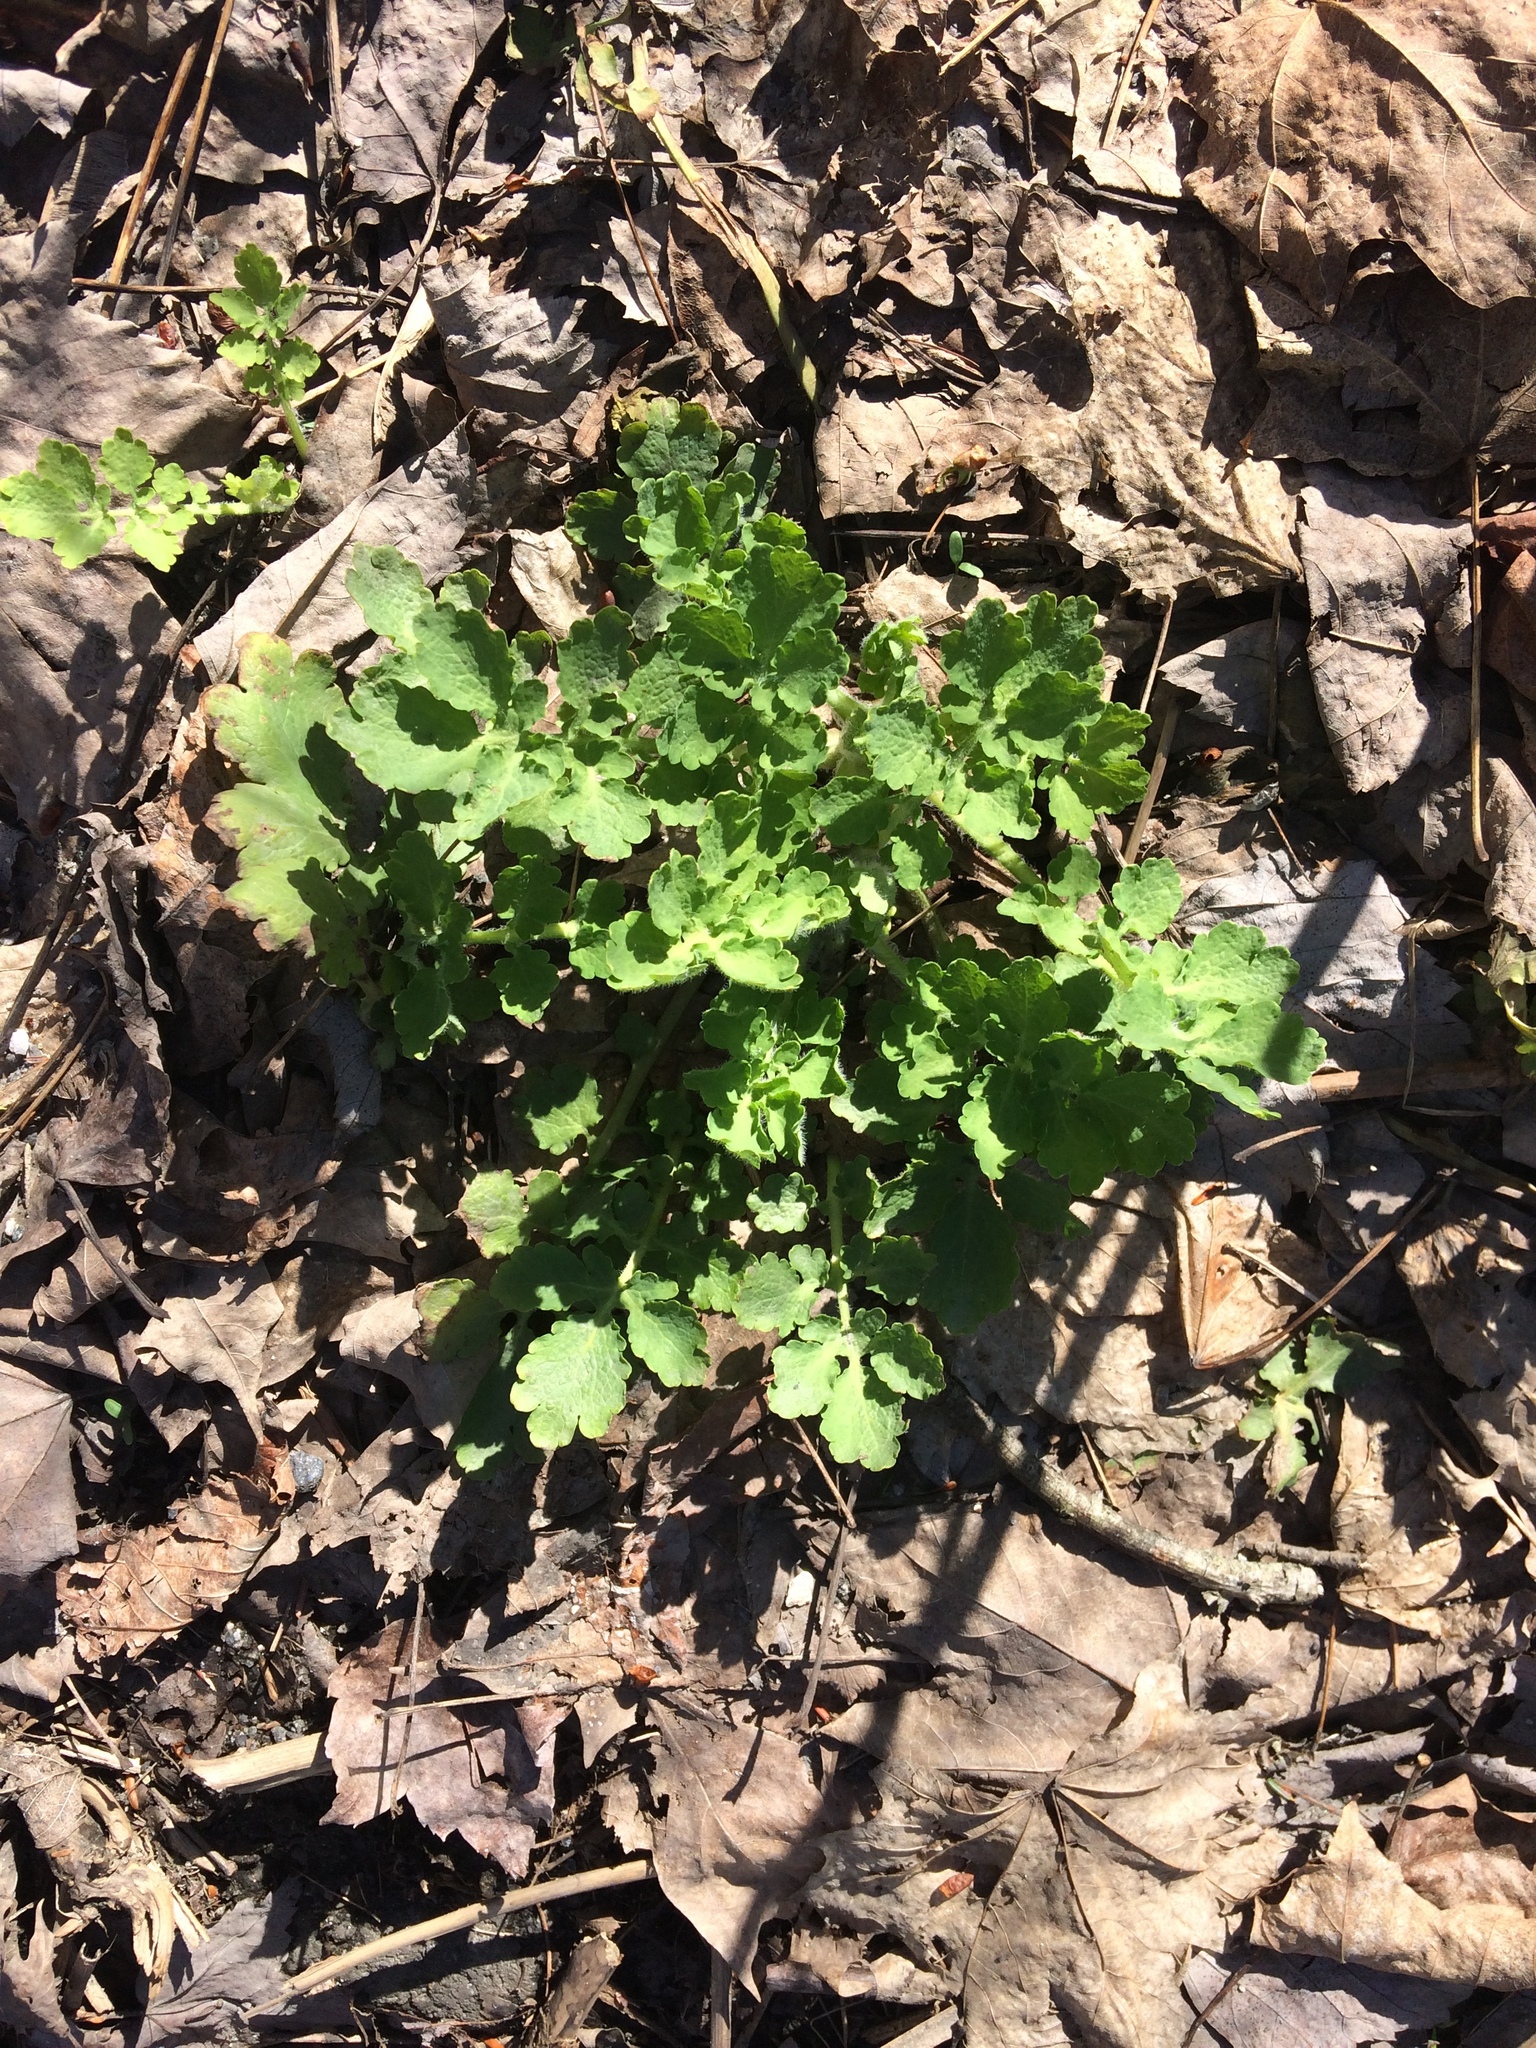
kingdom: Plantae
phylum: Tracheophyta
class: Magnoliopsida
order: Ranunculales
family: Papaveraceae
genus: Chelidonium
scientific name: Chelidonium majus
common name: Greater celandine
